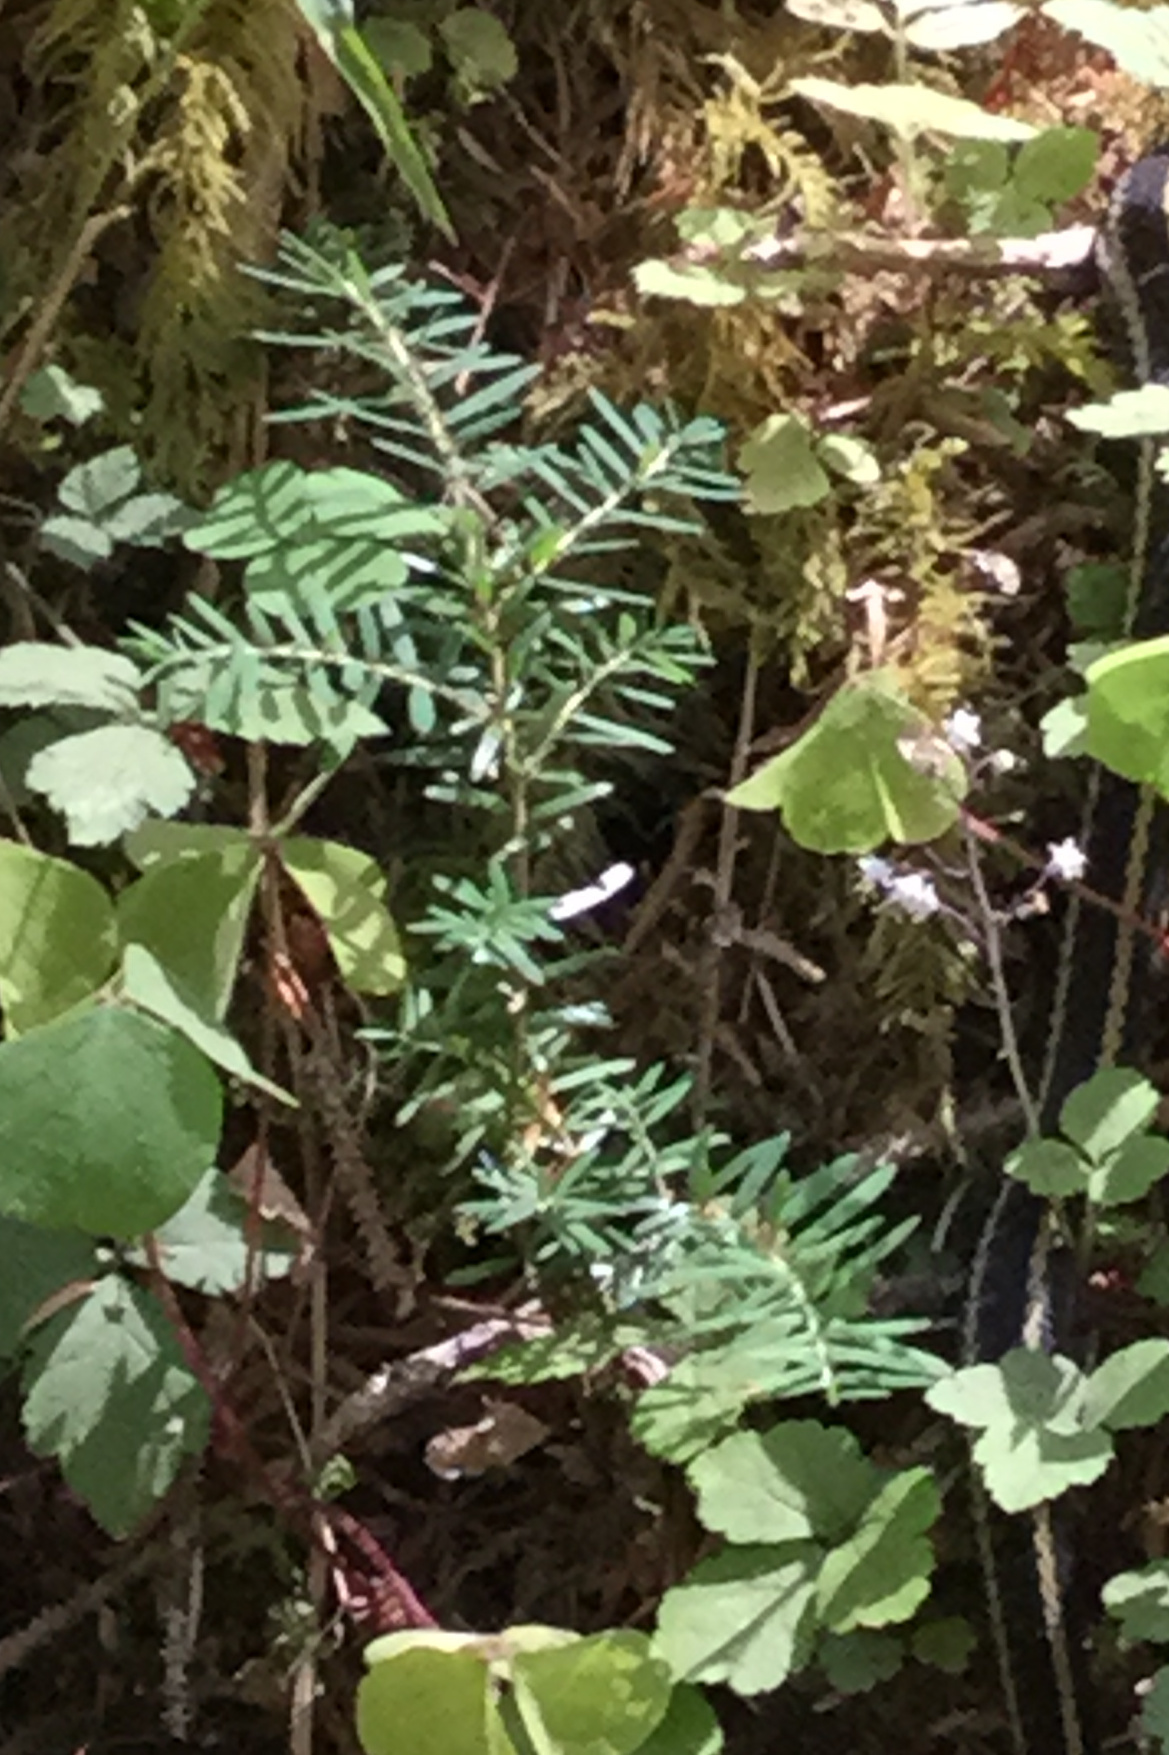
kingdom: Plantae
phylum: Tracheophyta
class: Pinopsida
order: Pinales
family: Pinaceae
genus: Tsuga
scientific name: Tsuga heterophylla
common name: Western hemlock
